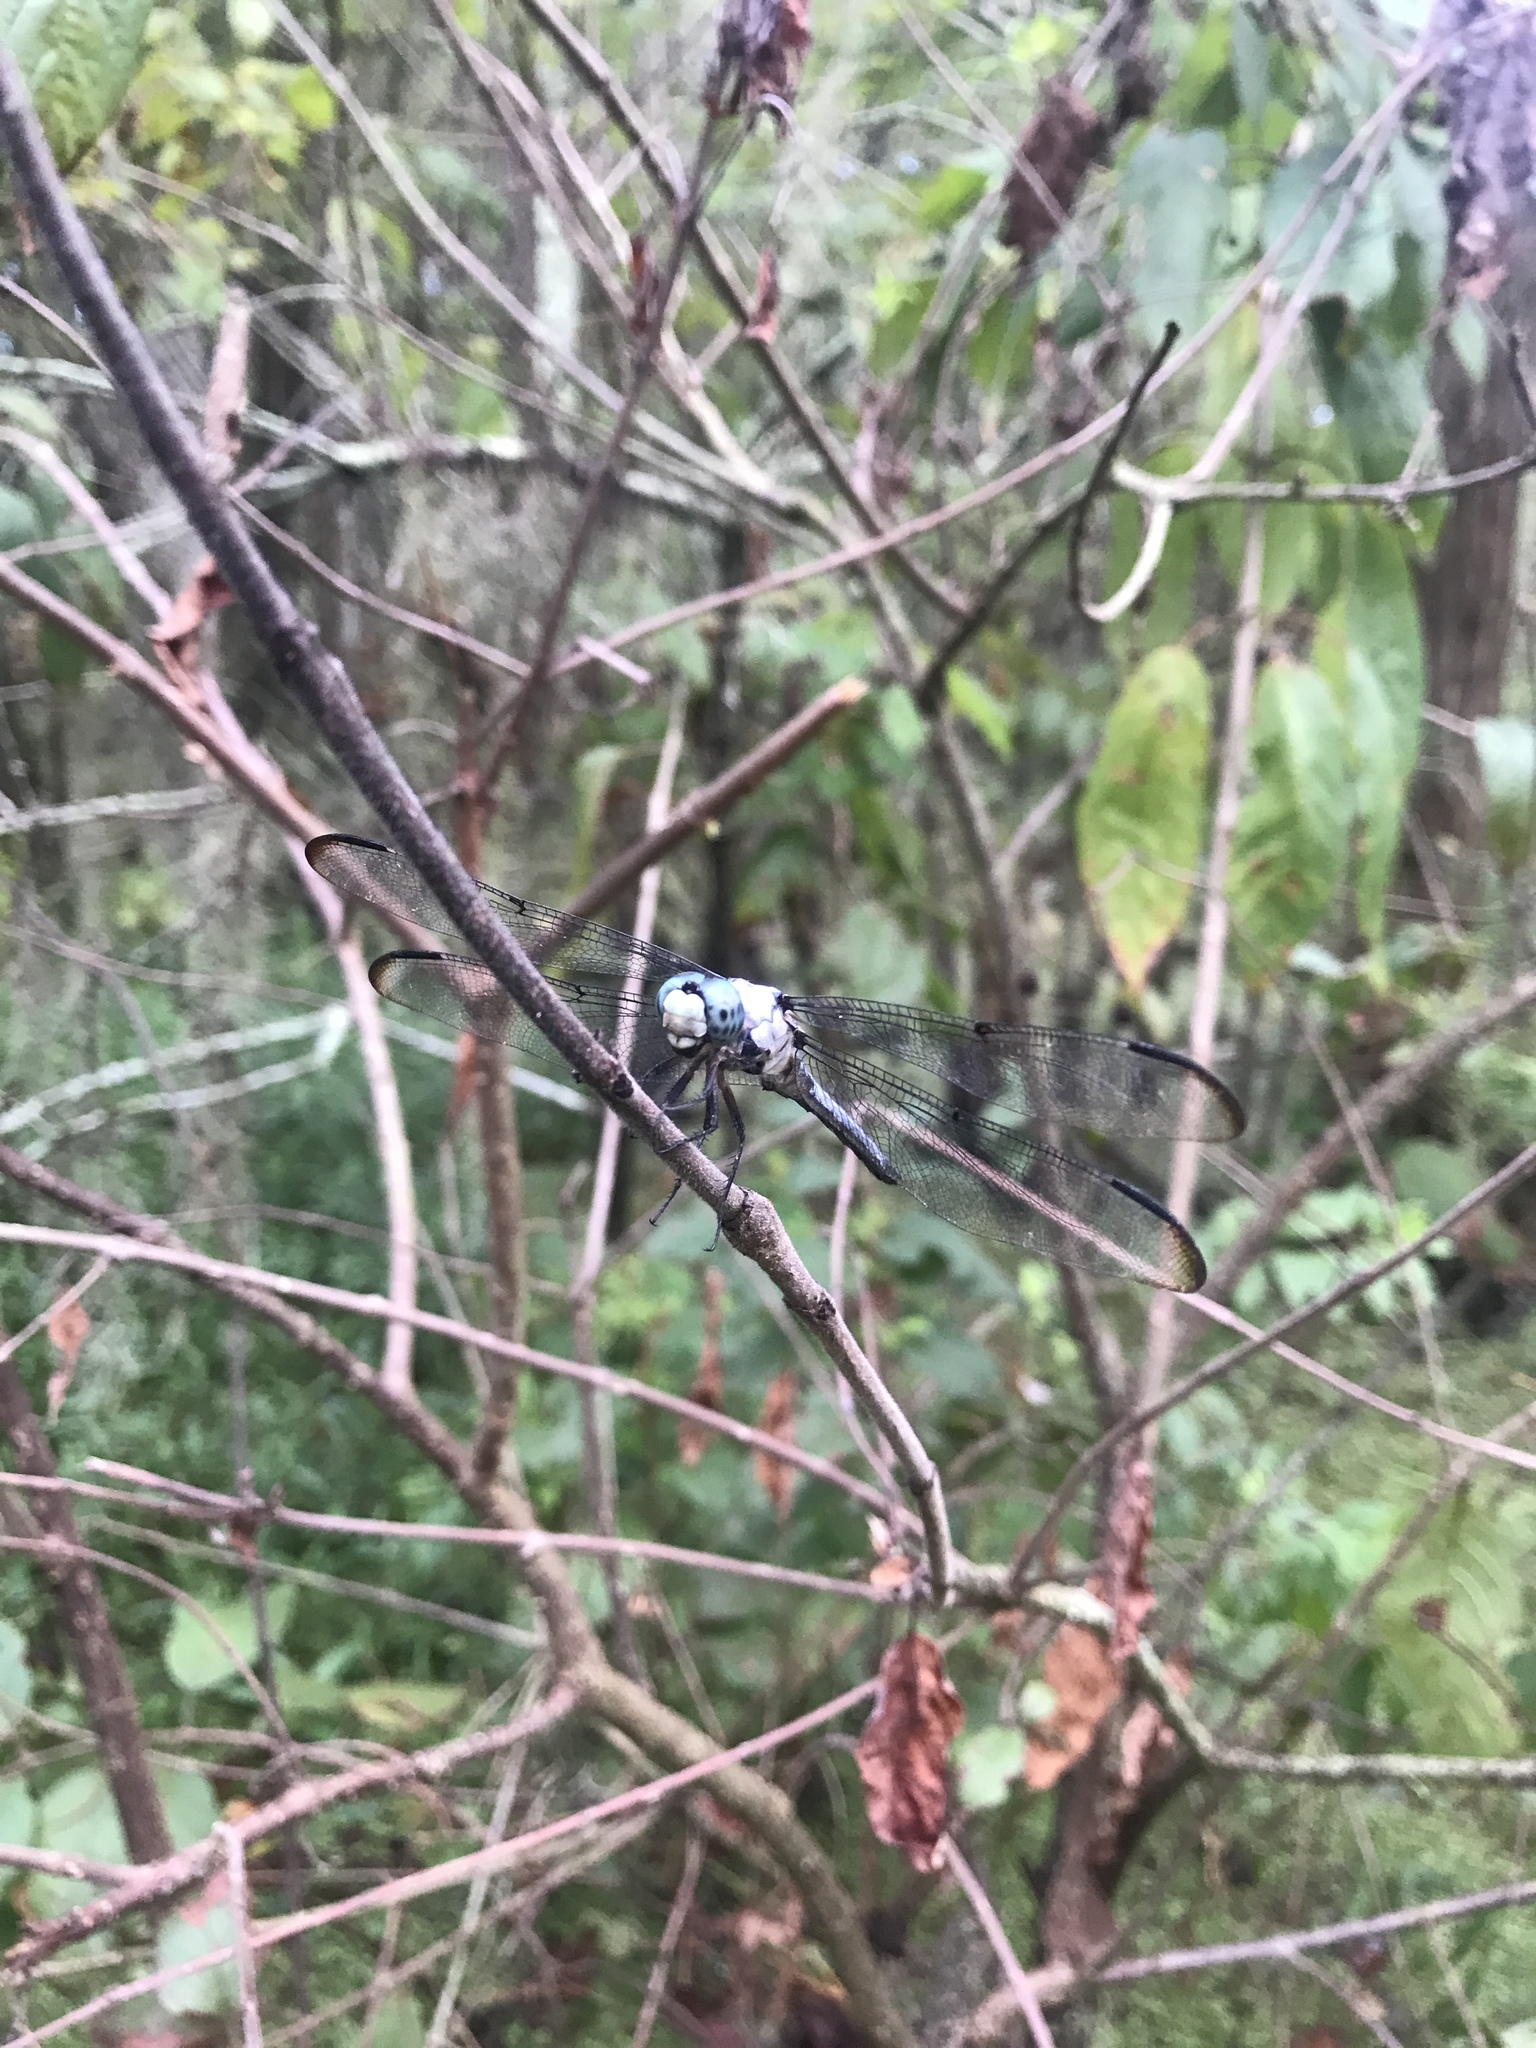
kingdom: Animalia
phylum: Arthropoda
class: Insecta
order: Odonata
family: Libellulidae
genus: Libellula
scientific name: Libellula vibrans
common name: Great blue skimmer
